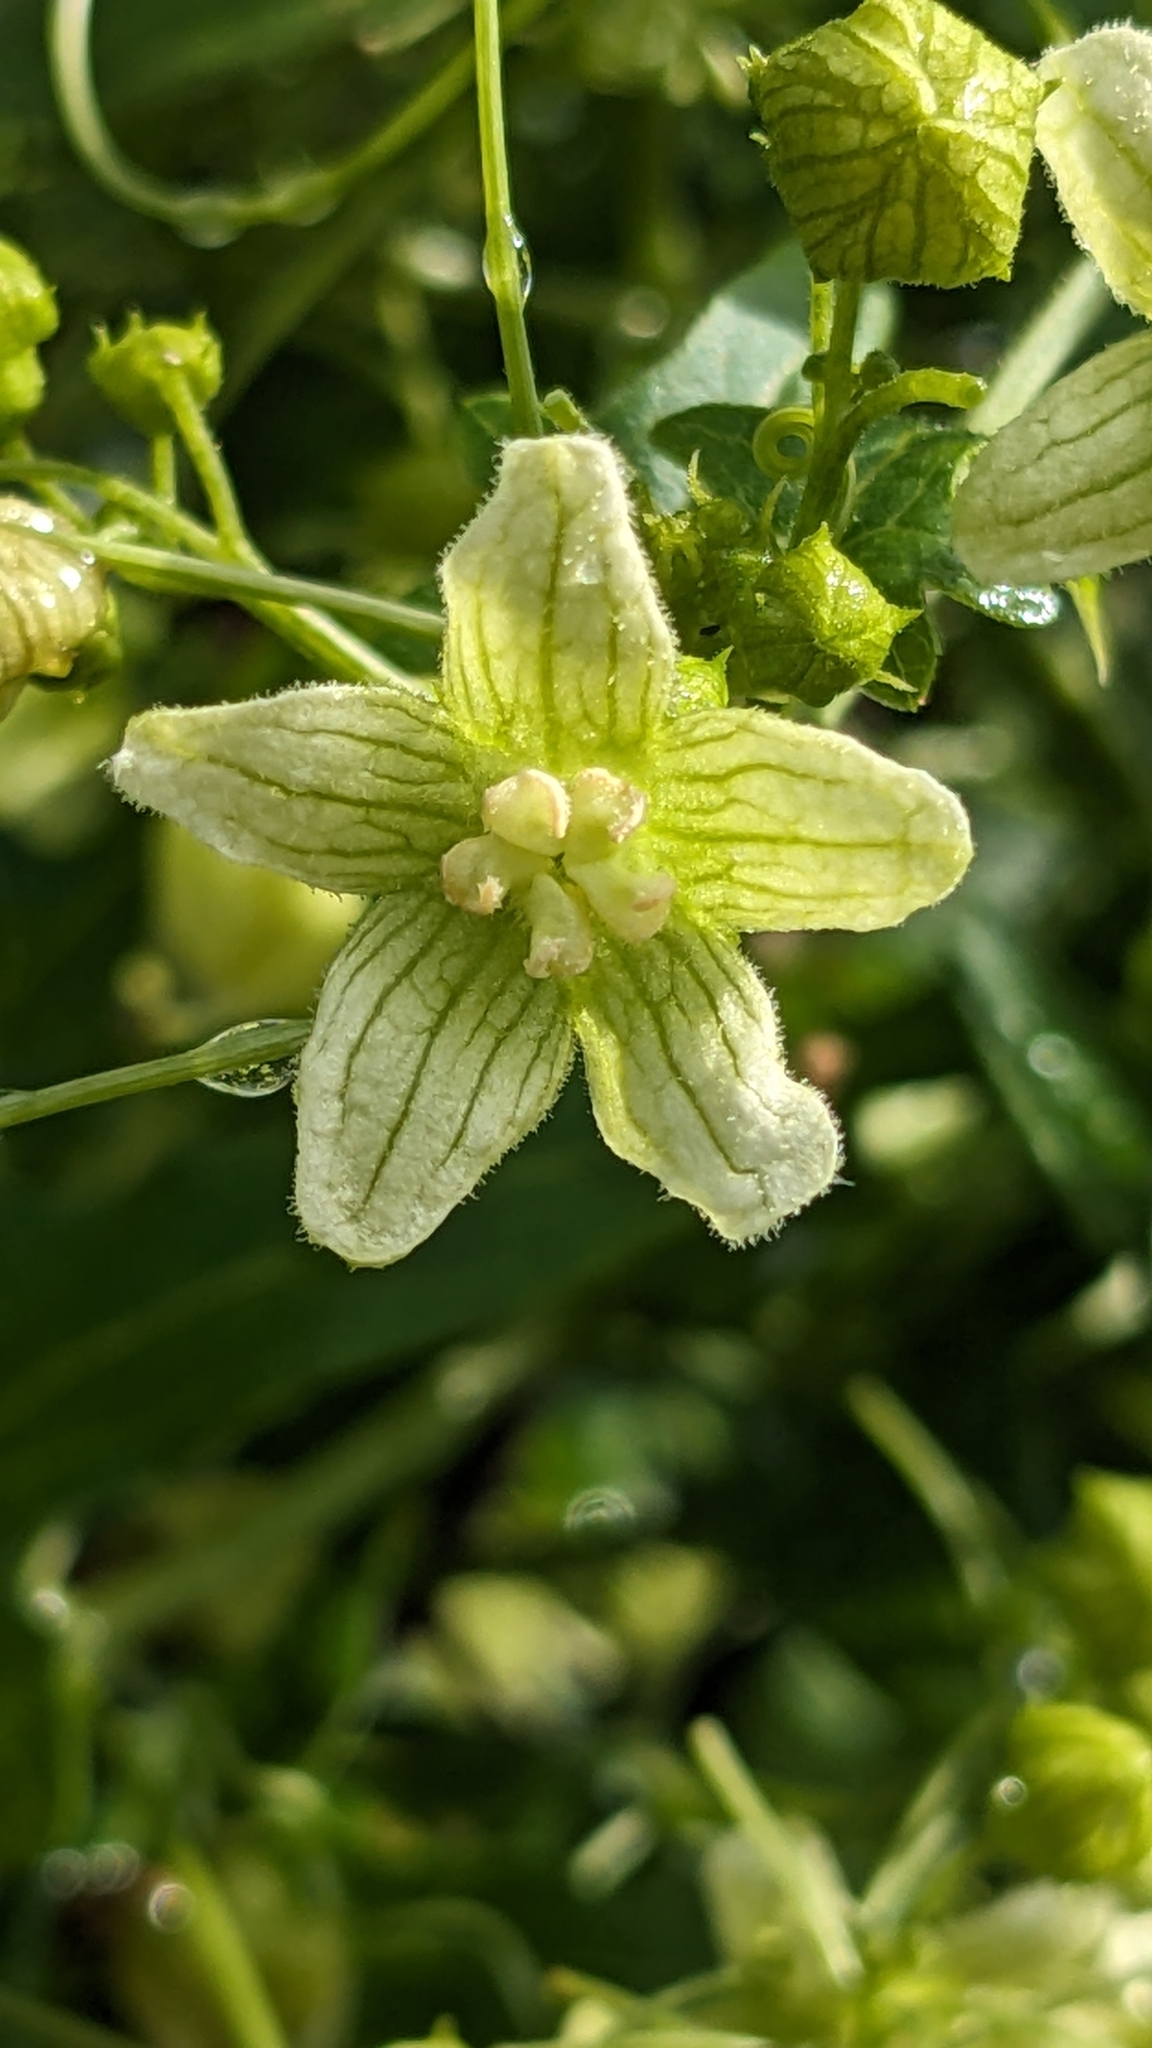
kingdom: Plantae
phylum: Tracheophyta
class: Magnoliopsida
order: Cucurbitales
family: Cucurbitaceae
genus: Bryonia
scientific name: Bryonia cretica
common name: Cretan bryony
